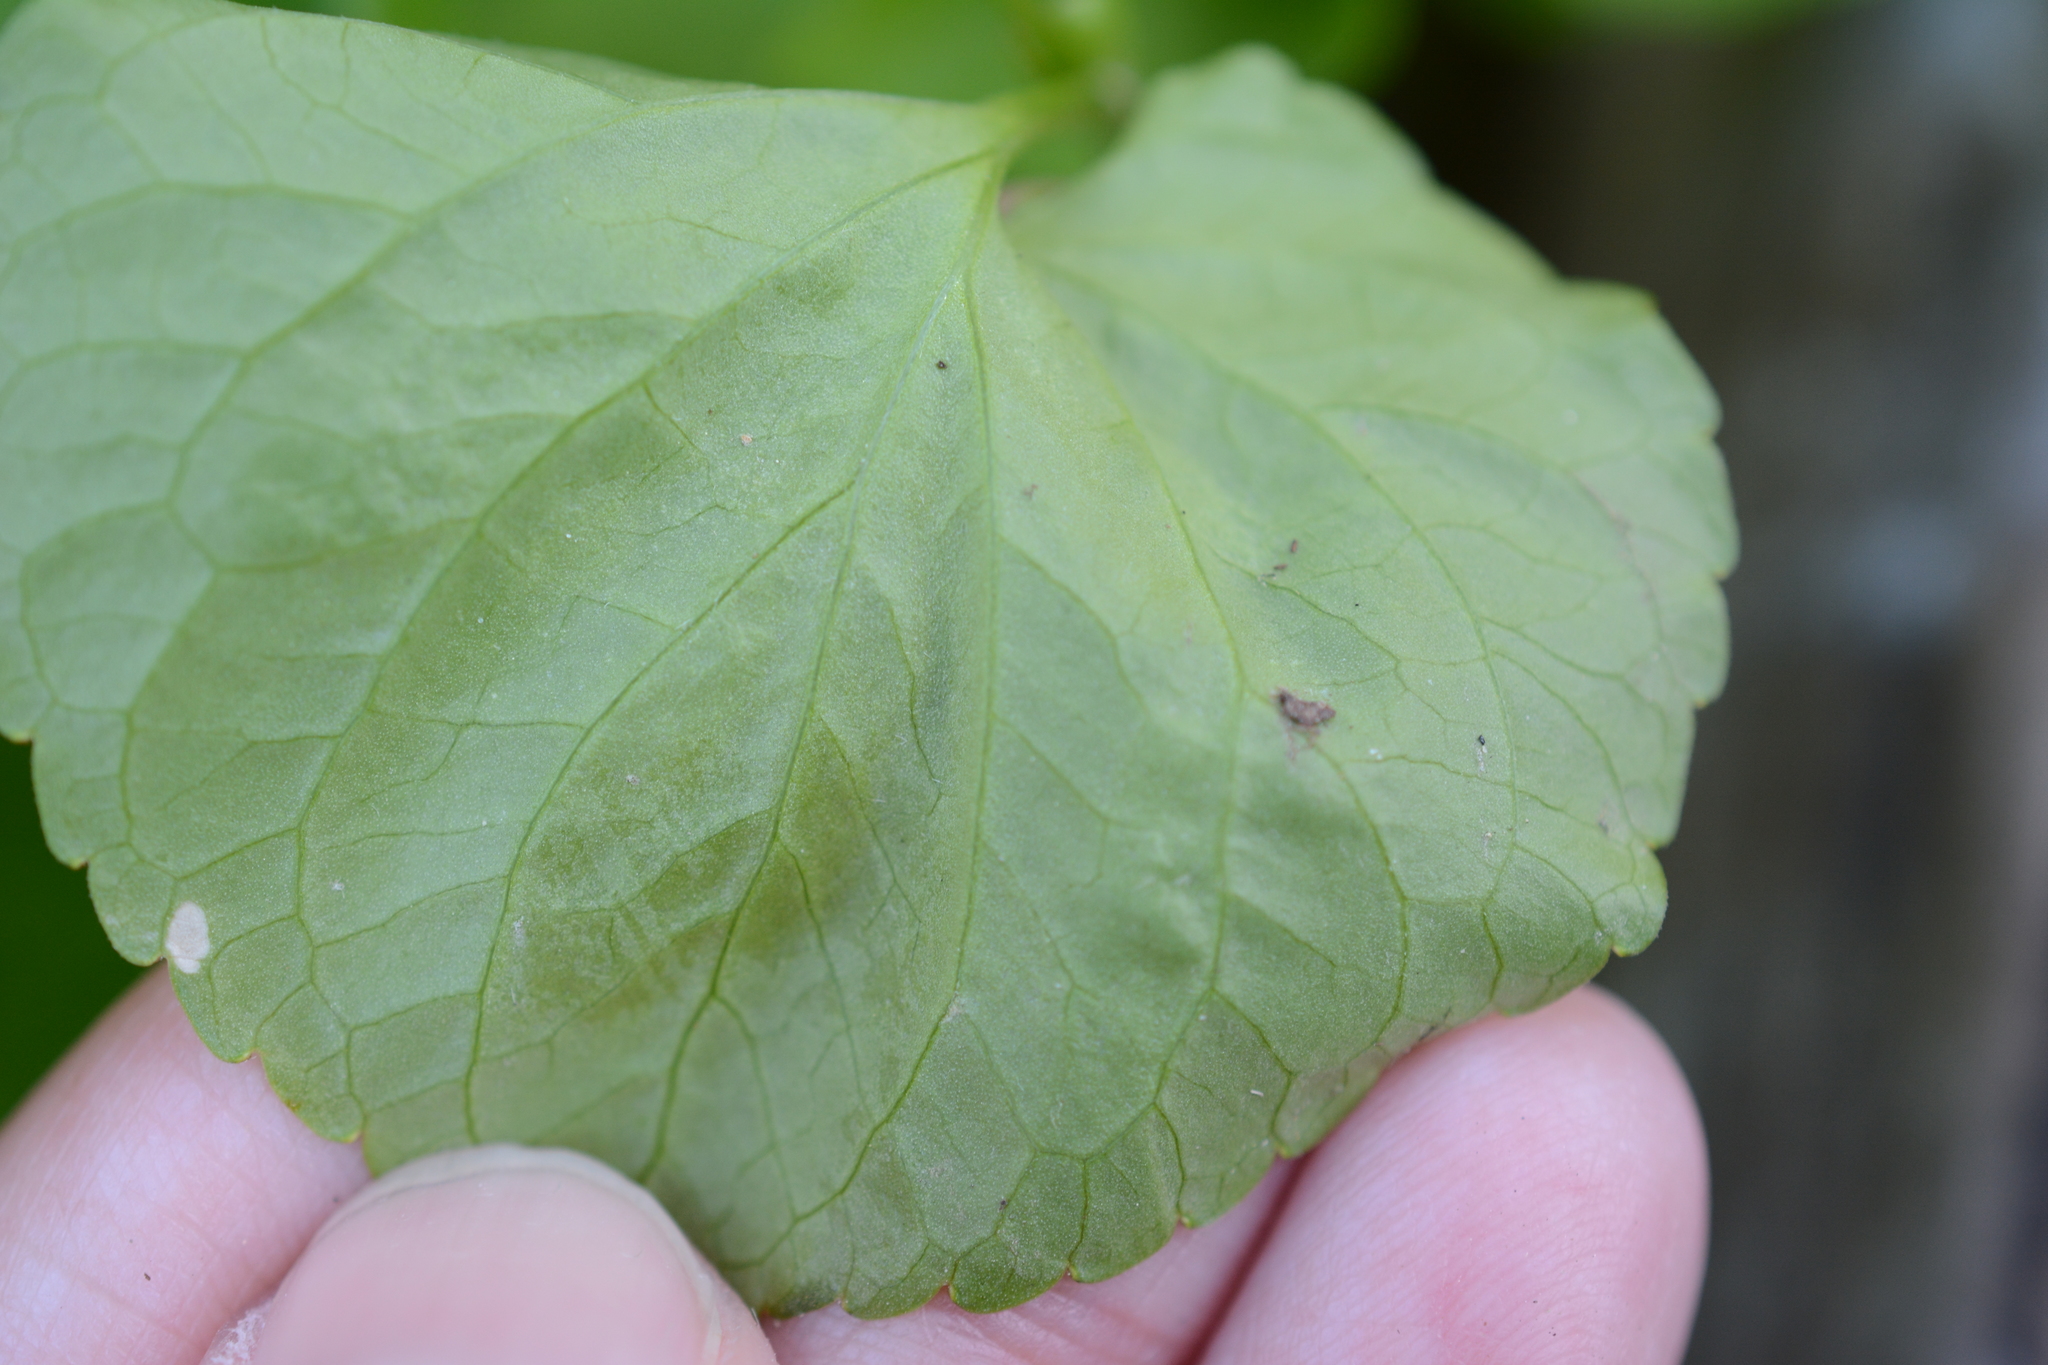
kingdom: Plantae
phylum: Tracheophyta
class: Magnoliopsida
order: Malpighiales
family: Violaceae
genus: Viola
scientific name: Viola glabella
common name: Stream violet
